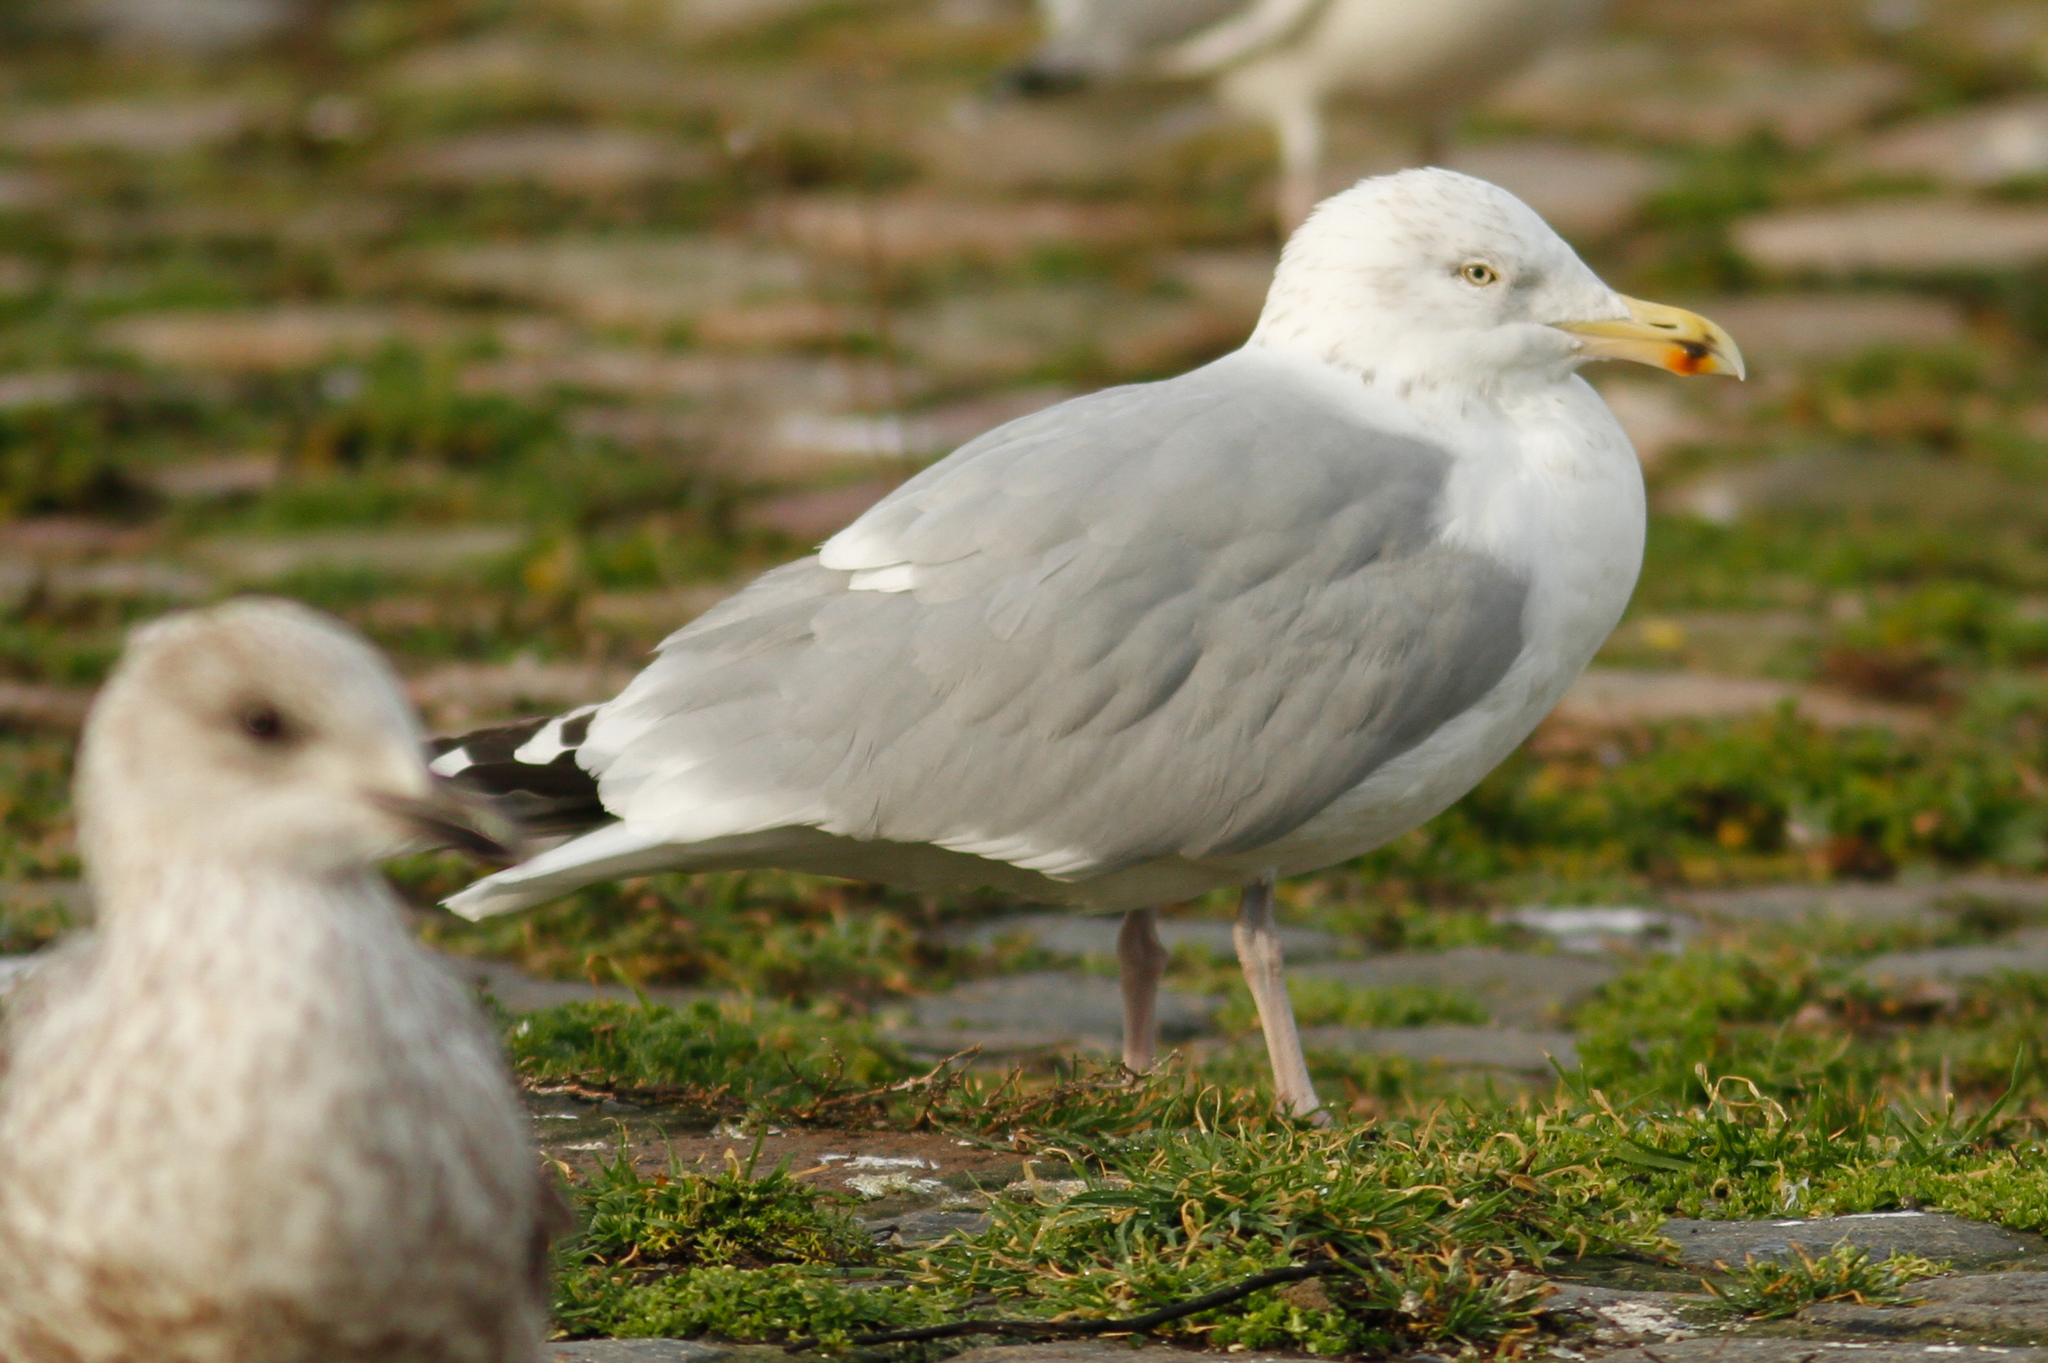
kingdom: Animalia
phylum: Chordata
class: Aves
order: Charadriiformes
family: Laridae
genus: Larus
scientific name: Larus argentatus
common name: Herring gull
